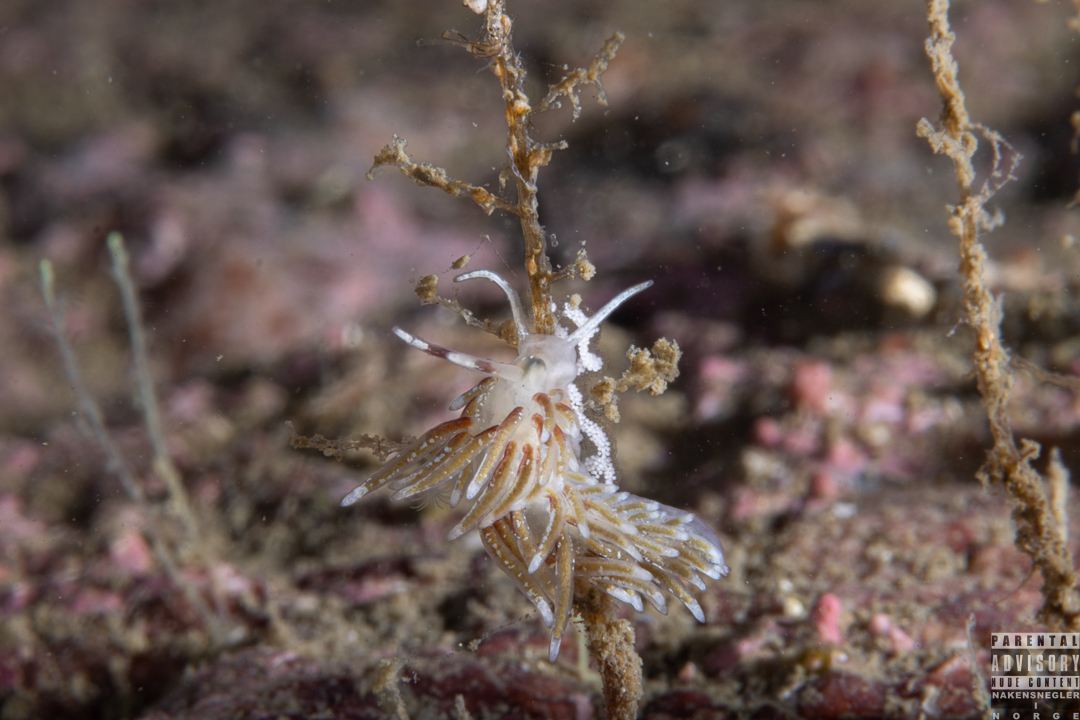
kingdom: Animalia
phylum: Mollusca
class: Gastropoda
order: Nudibranchia
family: Trinchesiidae
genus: Rubramoena
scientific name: Rubramoena rubescens
